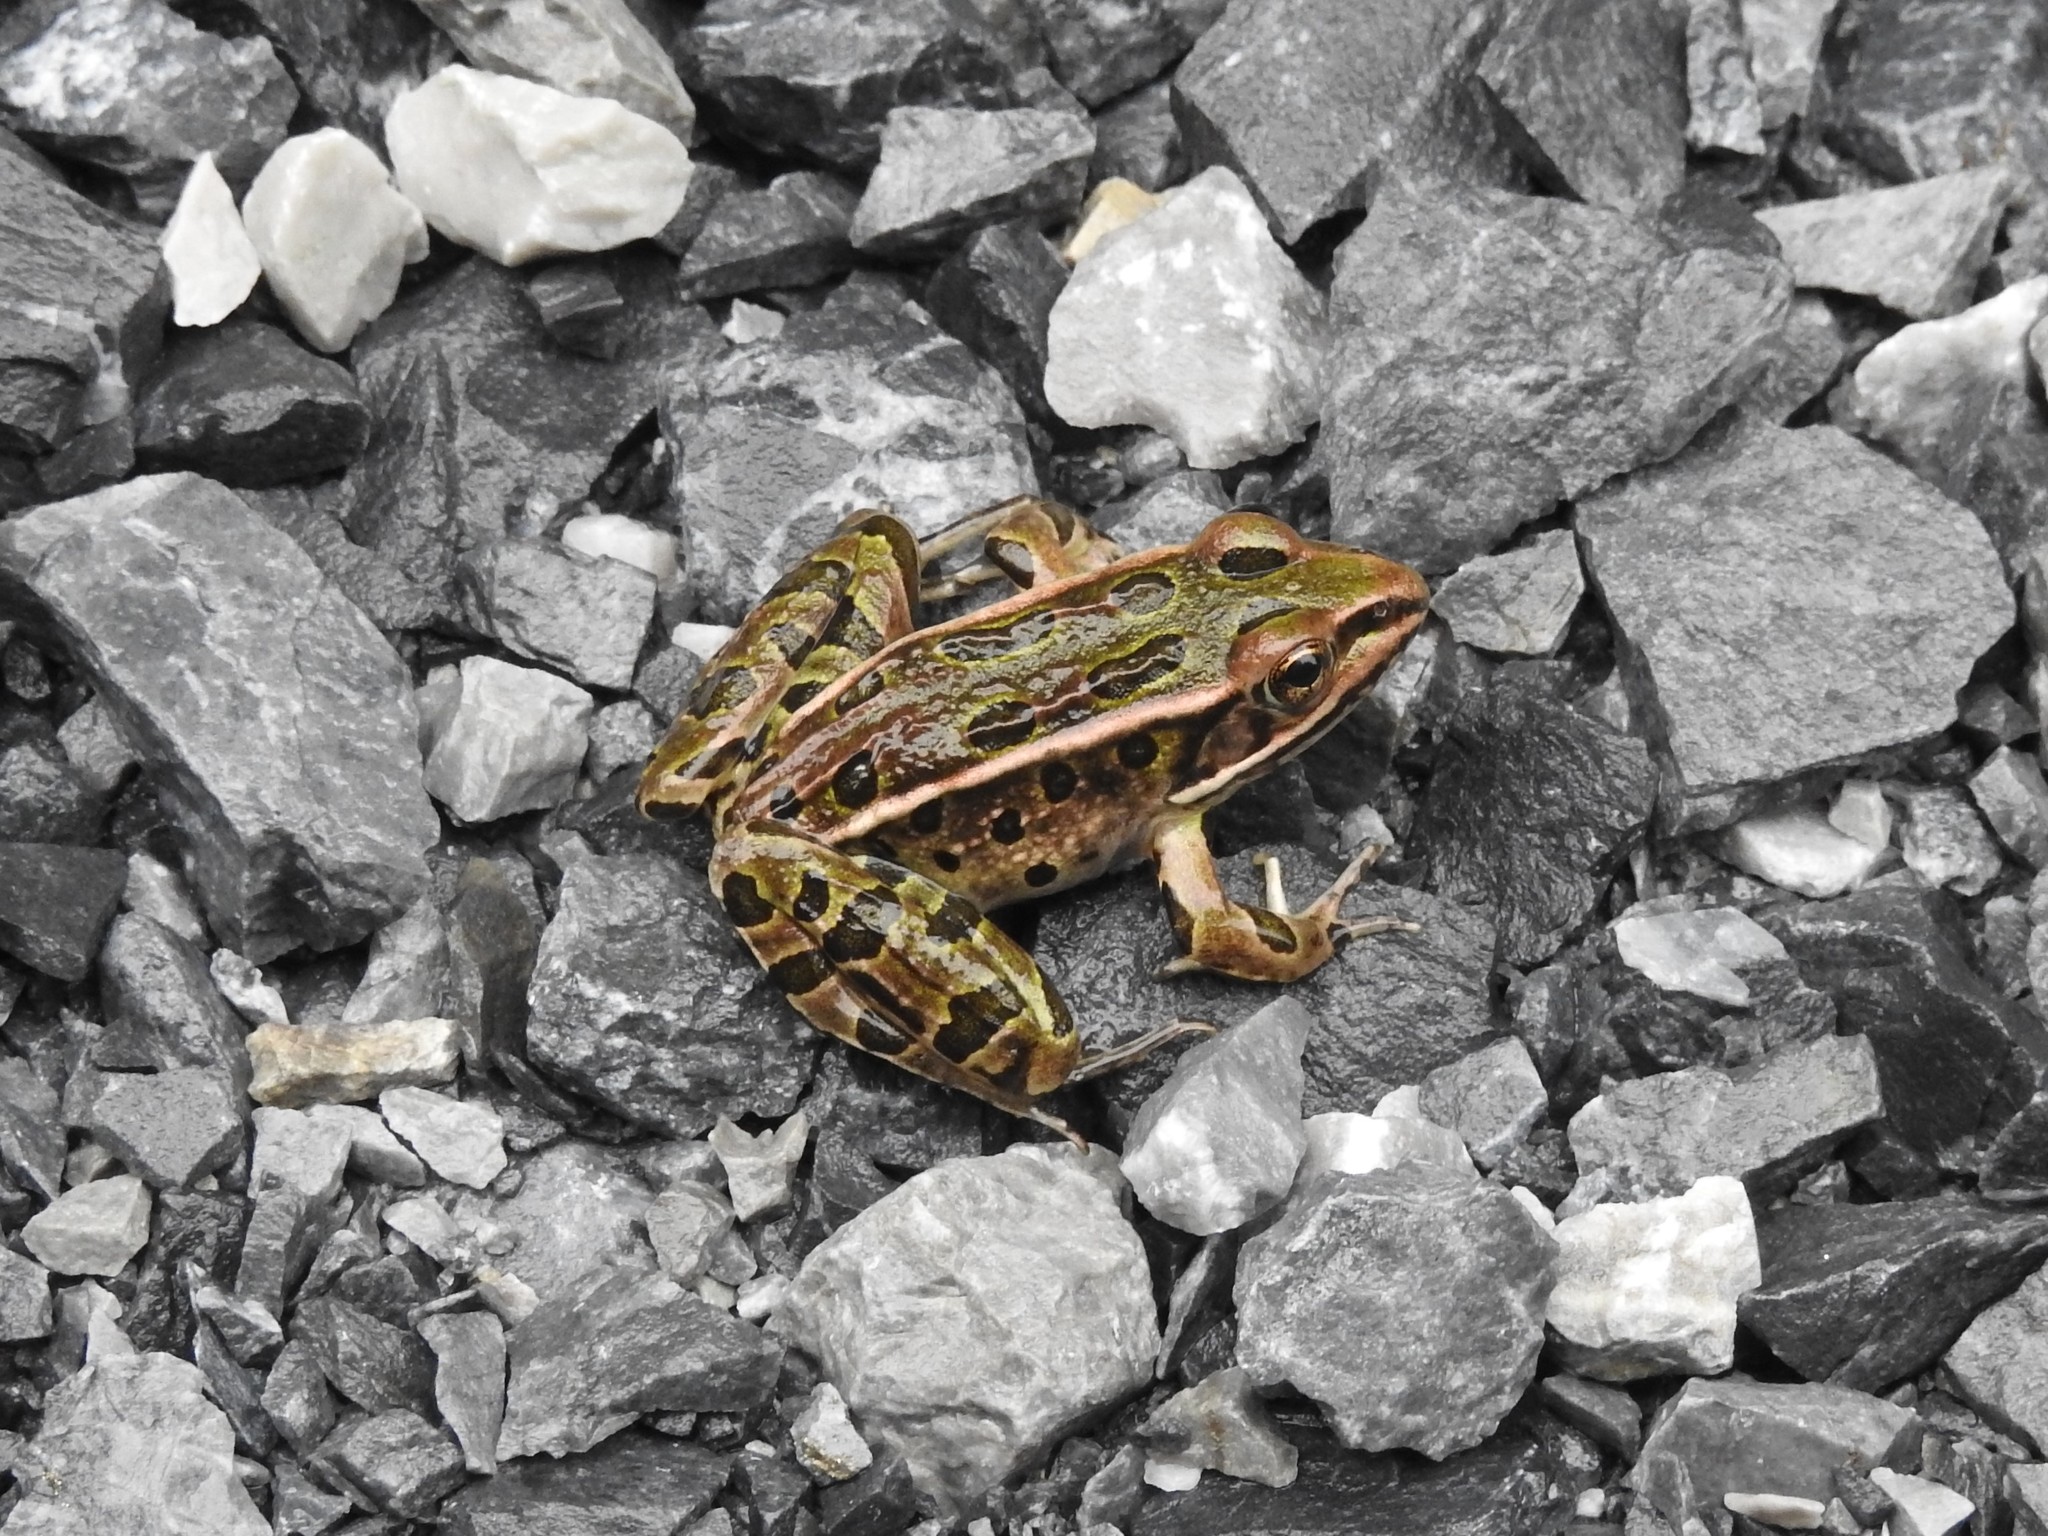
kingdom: Animalia
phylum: Chordata
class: Amphibia
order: Anura
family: Ranidae
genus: Lithobates
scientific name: Lithobates pipiens
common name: Northern leopard frog
